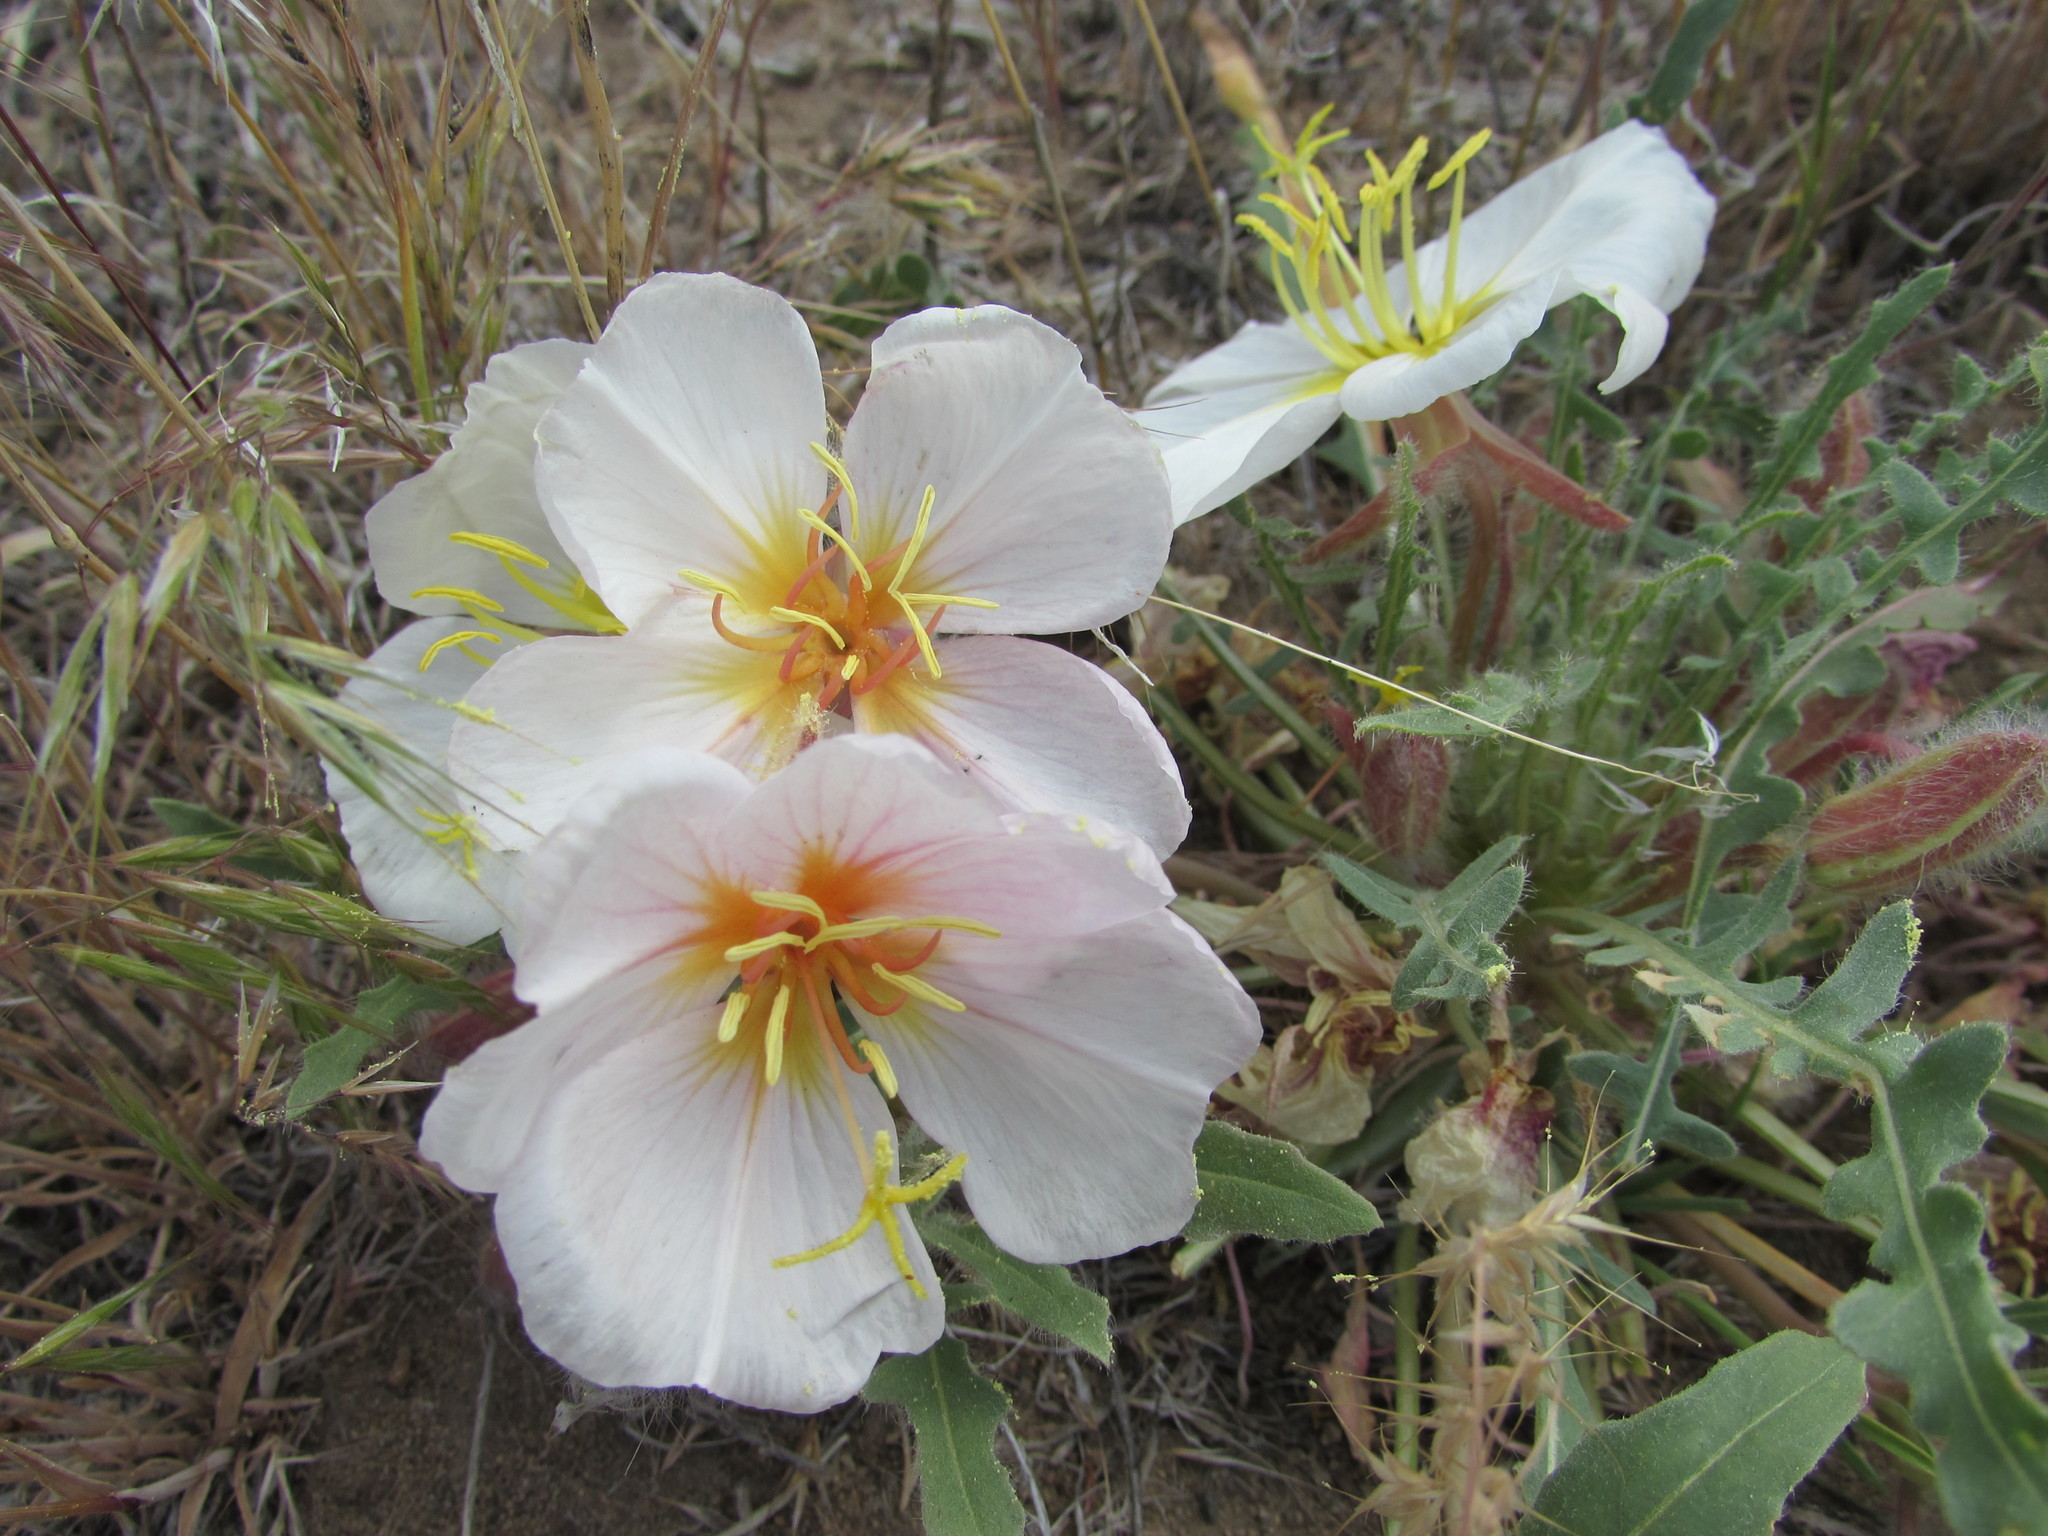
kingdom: Plantae
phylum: Tracheophyta
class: Magnoliopsida
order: Myrtales
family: Onagraceae
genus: Oenothera
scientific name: Oenothera cespitosa
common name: Tufted evening-primrose
